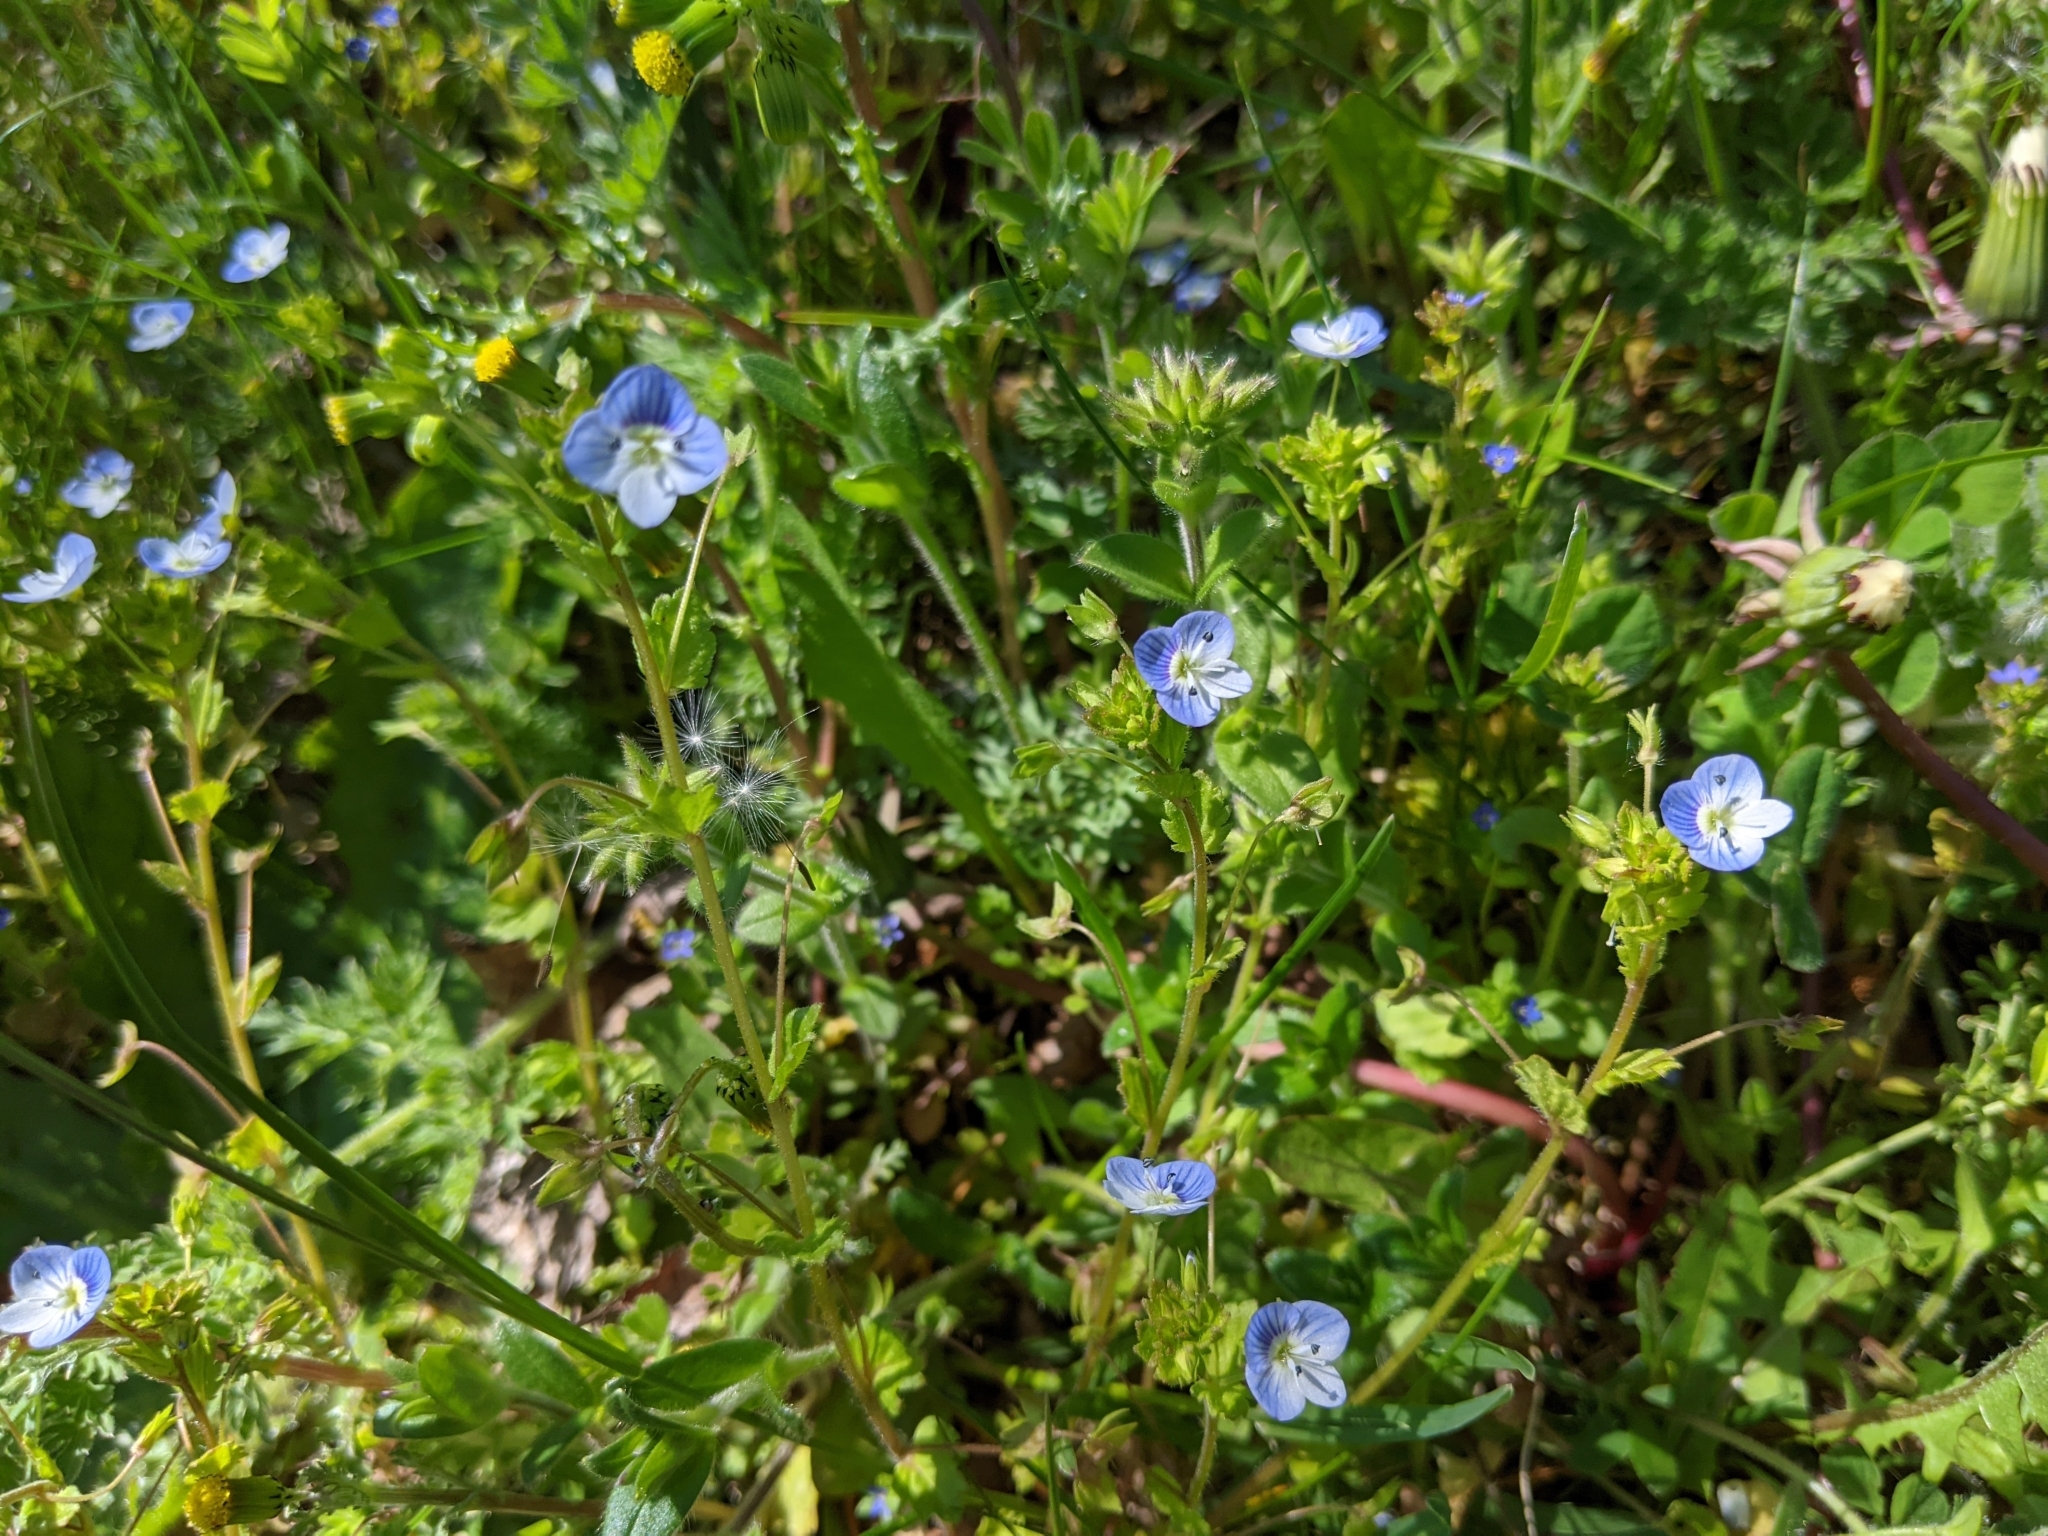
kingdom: Plantae
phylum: Tracheophyta
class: Magnoliopsida
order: Lamiales
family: Plantaginaceae
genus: Veronica
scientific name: Veronica persica
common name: Common field-speedwell
